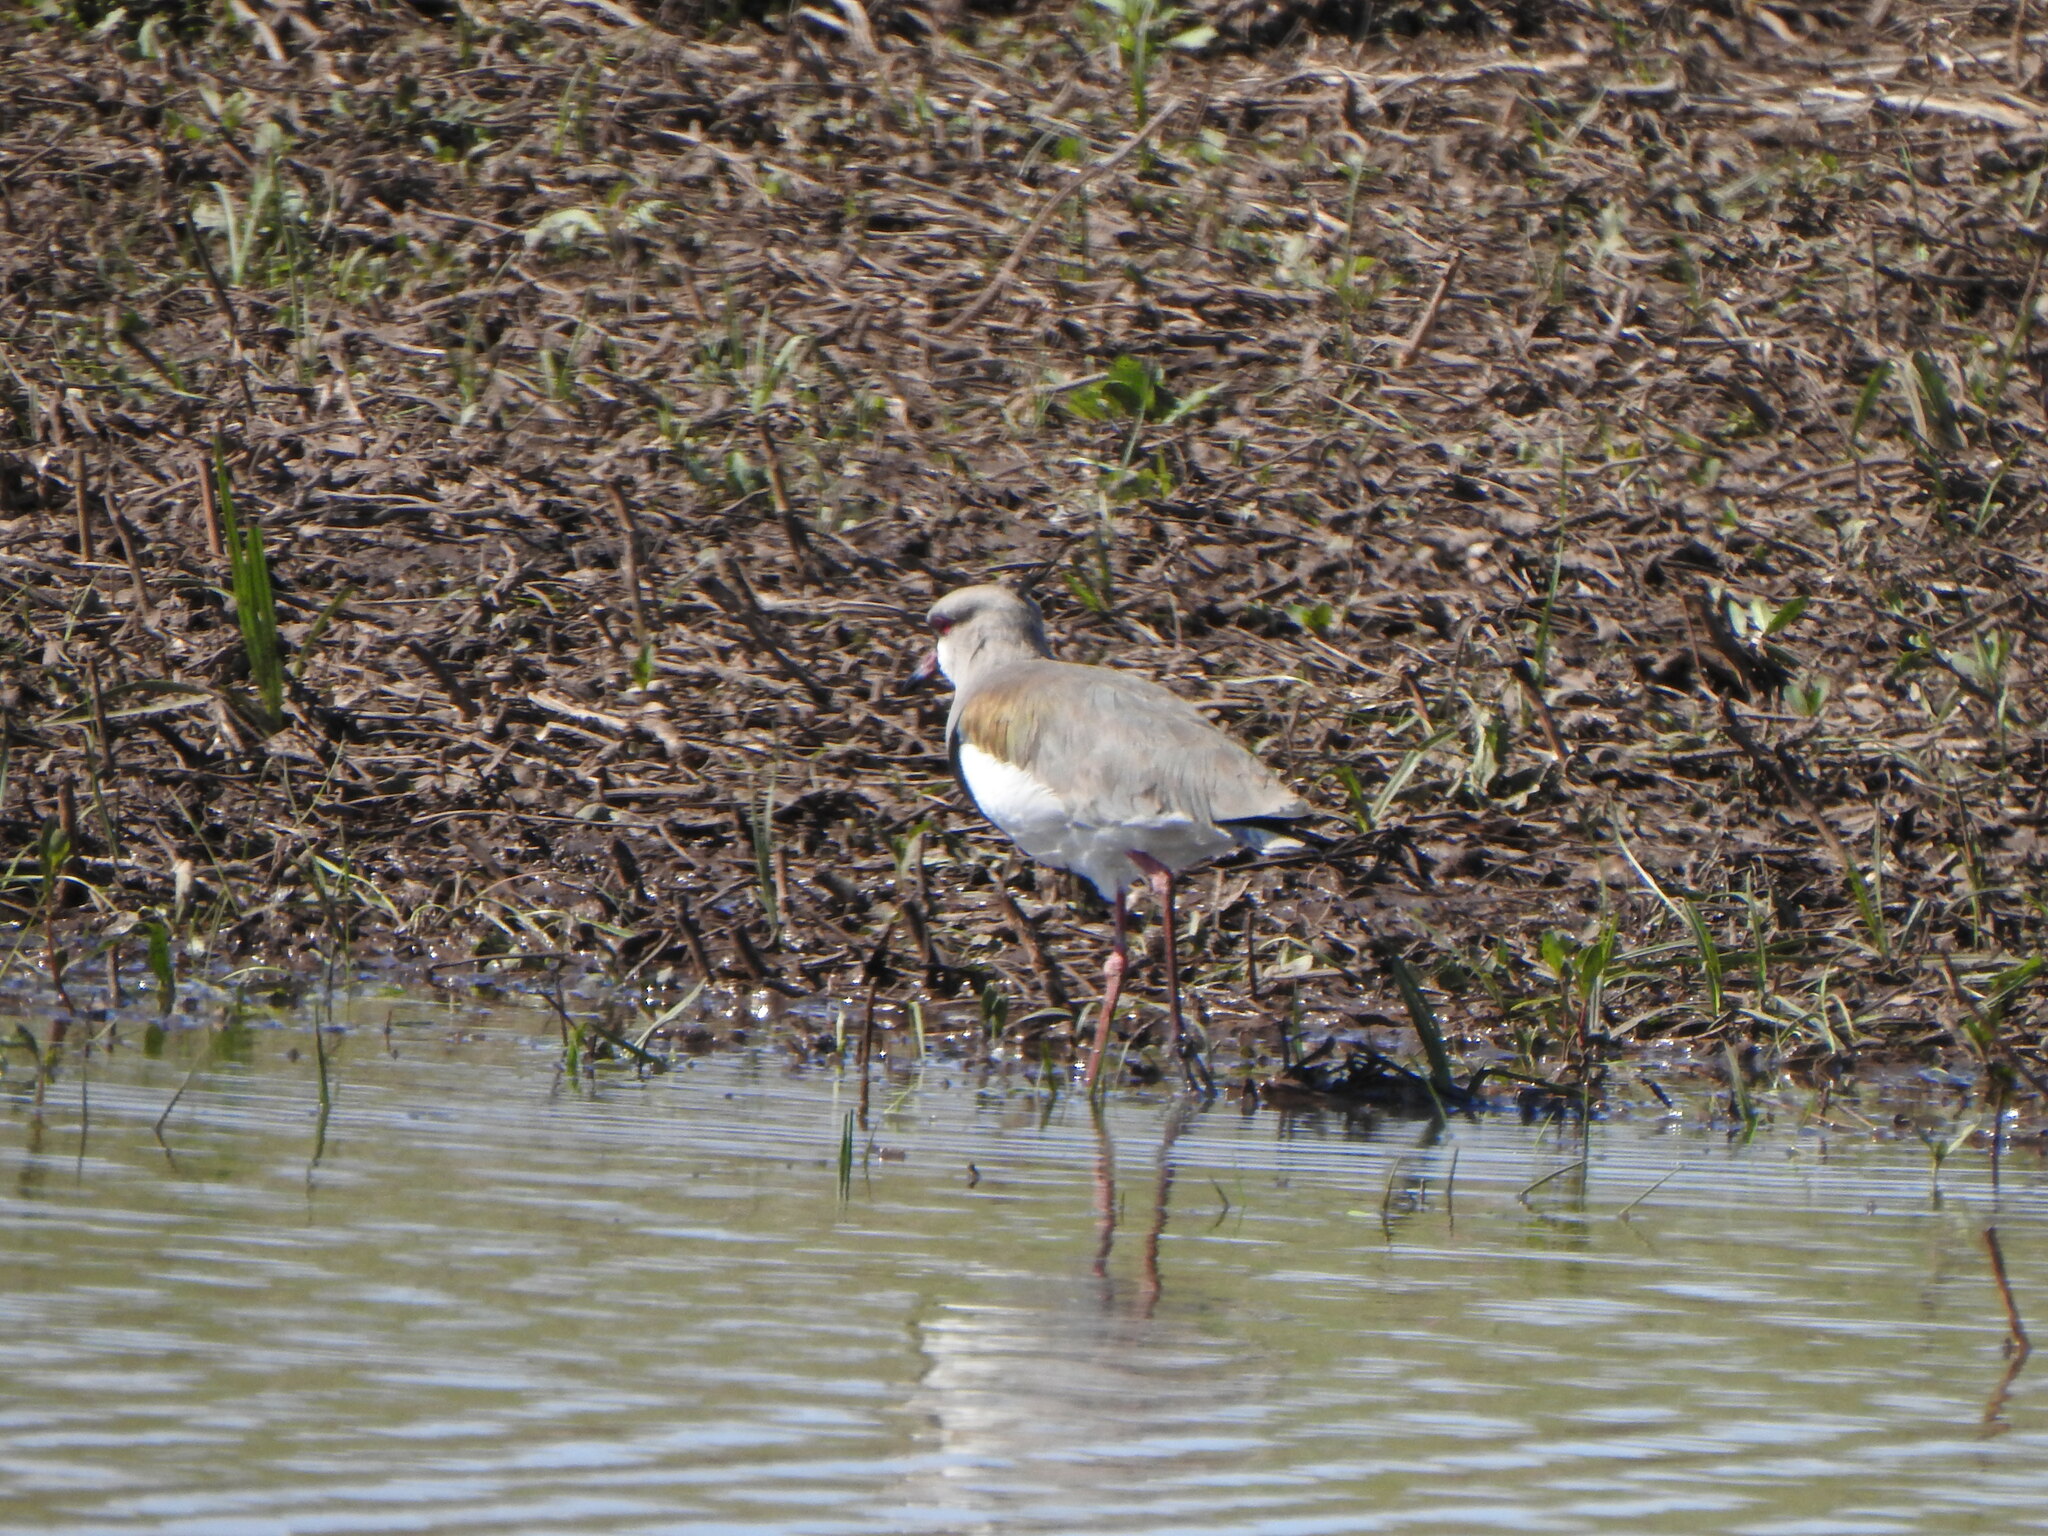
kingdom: Animalia
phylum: Chordata
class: Aves
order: Charadriiformes
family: Charadriidae
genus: Vanellus
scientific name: Vanellus chilensis
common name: Southern lapwing
